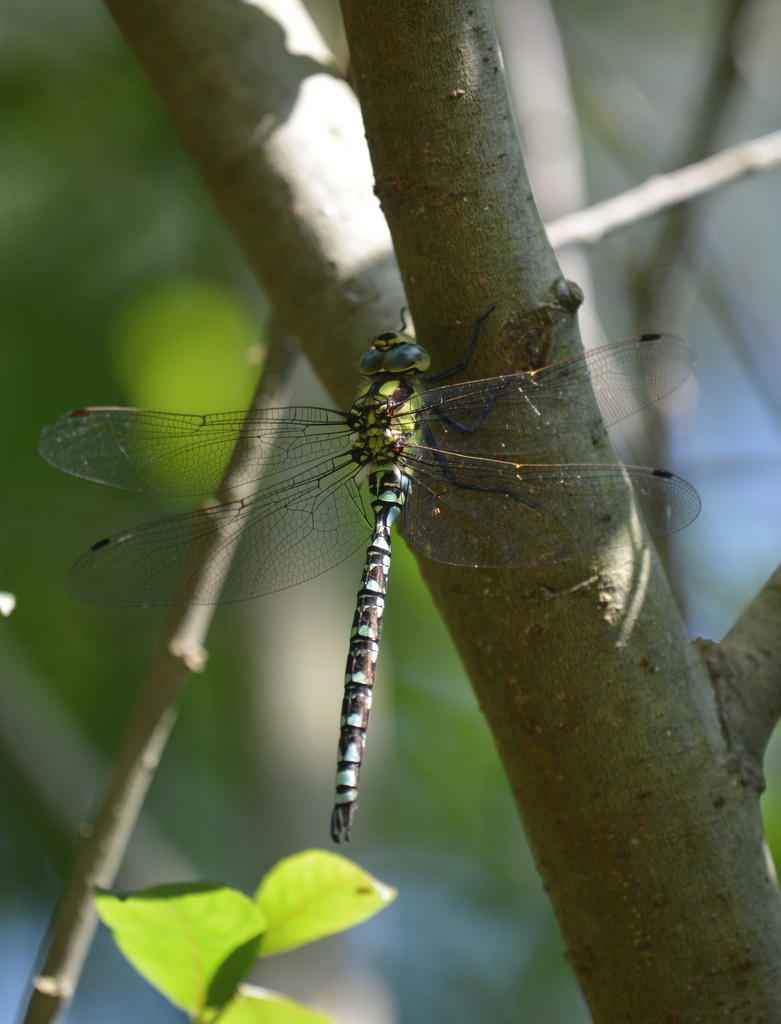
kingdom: Animalia
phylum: Arthropoda
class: Insecta
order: Odonata
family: Aeshnidae
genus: Aeshna
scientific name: Aeshna cyanea
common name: Southern hawker
